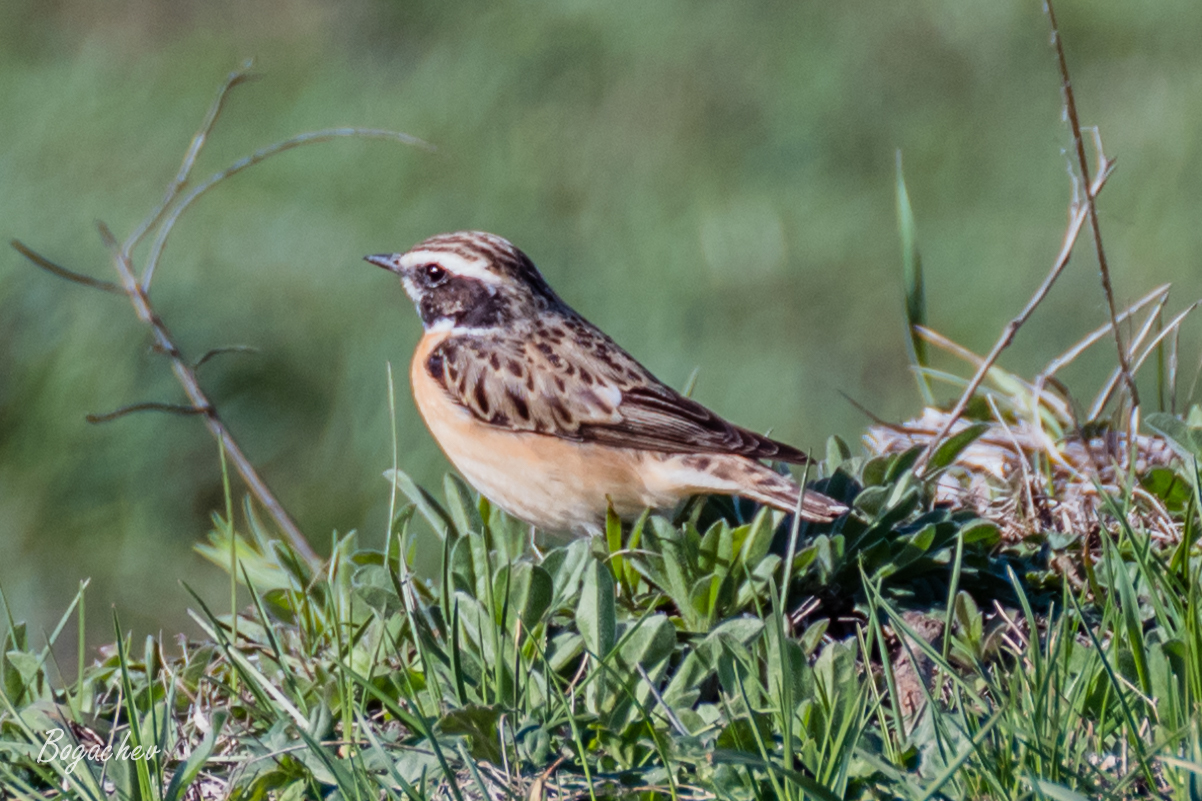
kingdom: Animalia
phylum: Chordata
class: Aves
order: Passeriformes
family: Muscicapidae
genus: Saxicola
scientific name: Saxicola rubetra
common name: Whinchat
